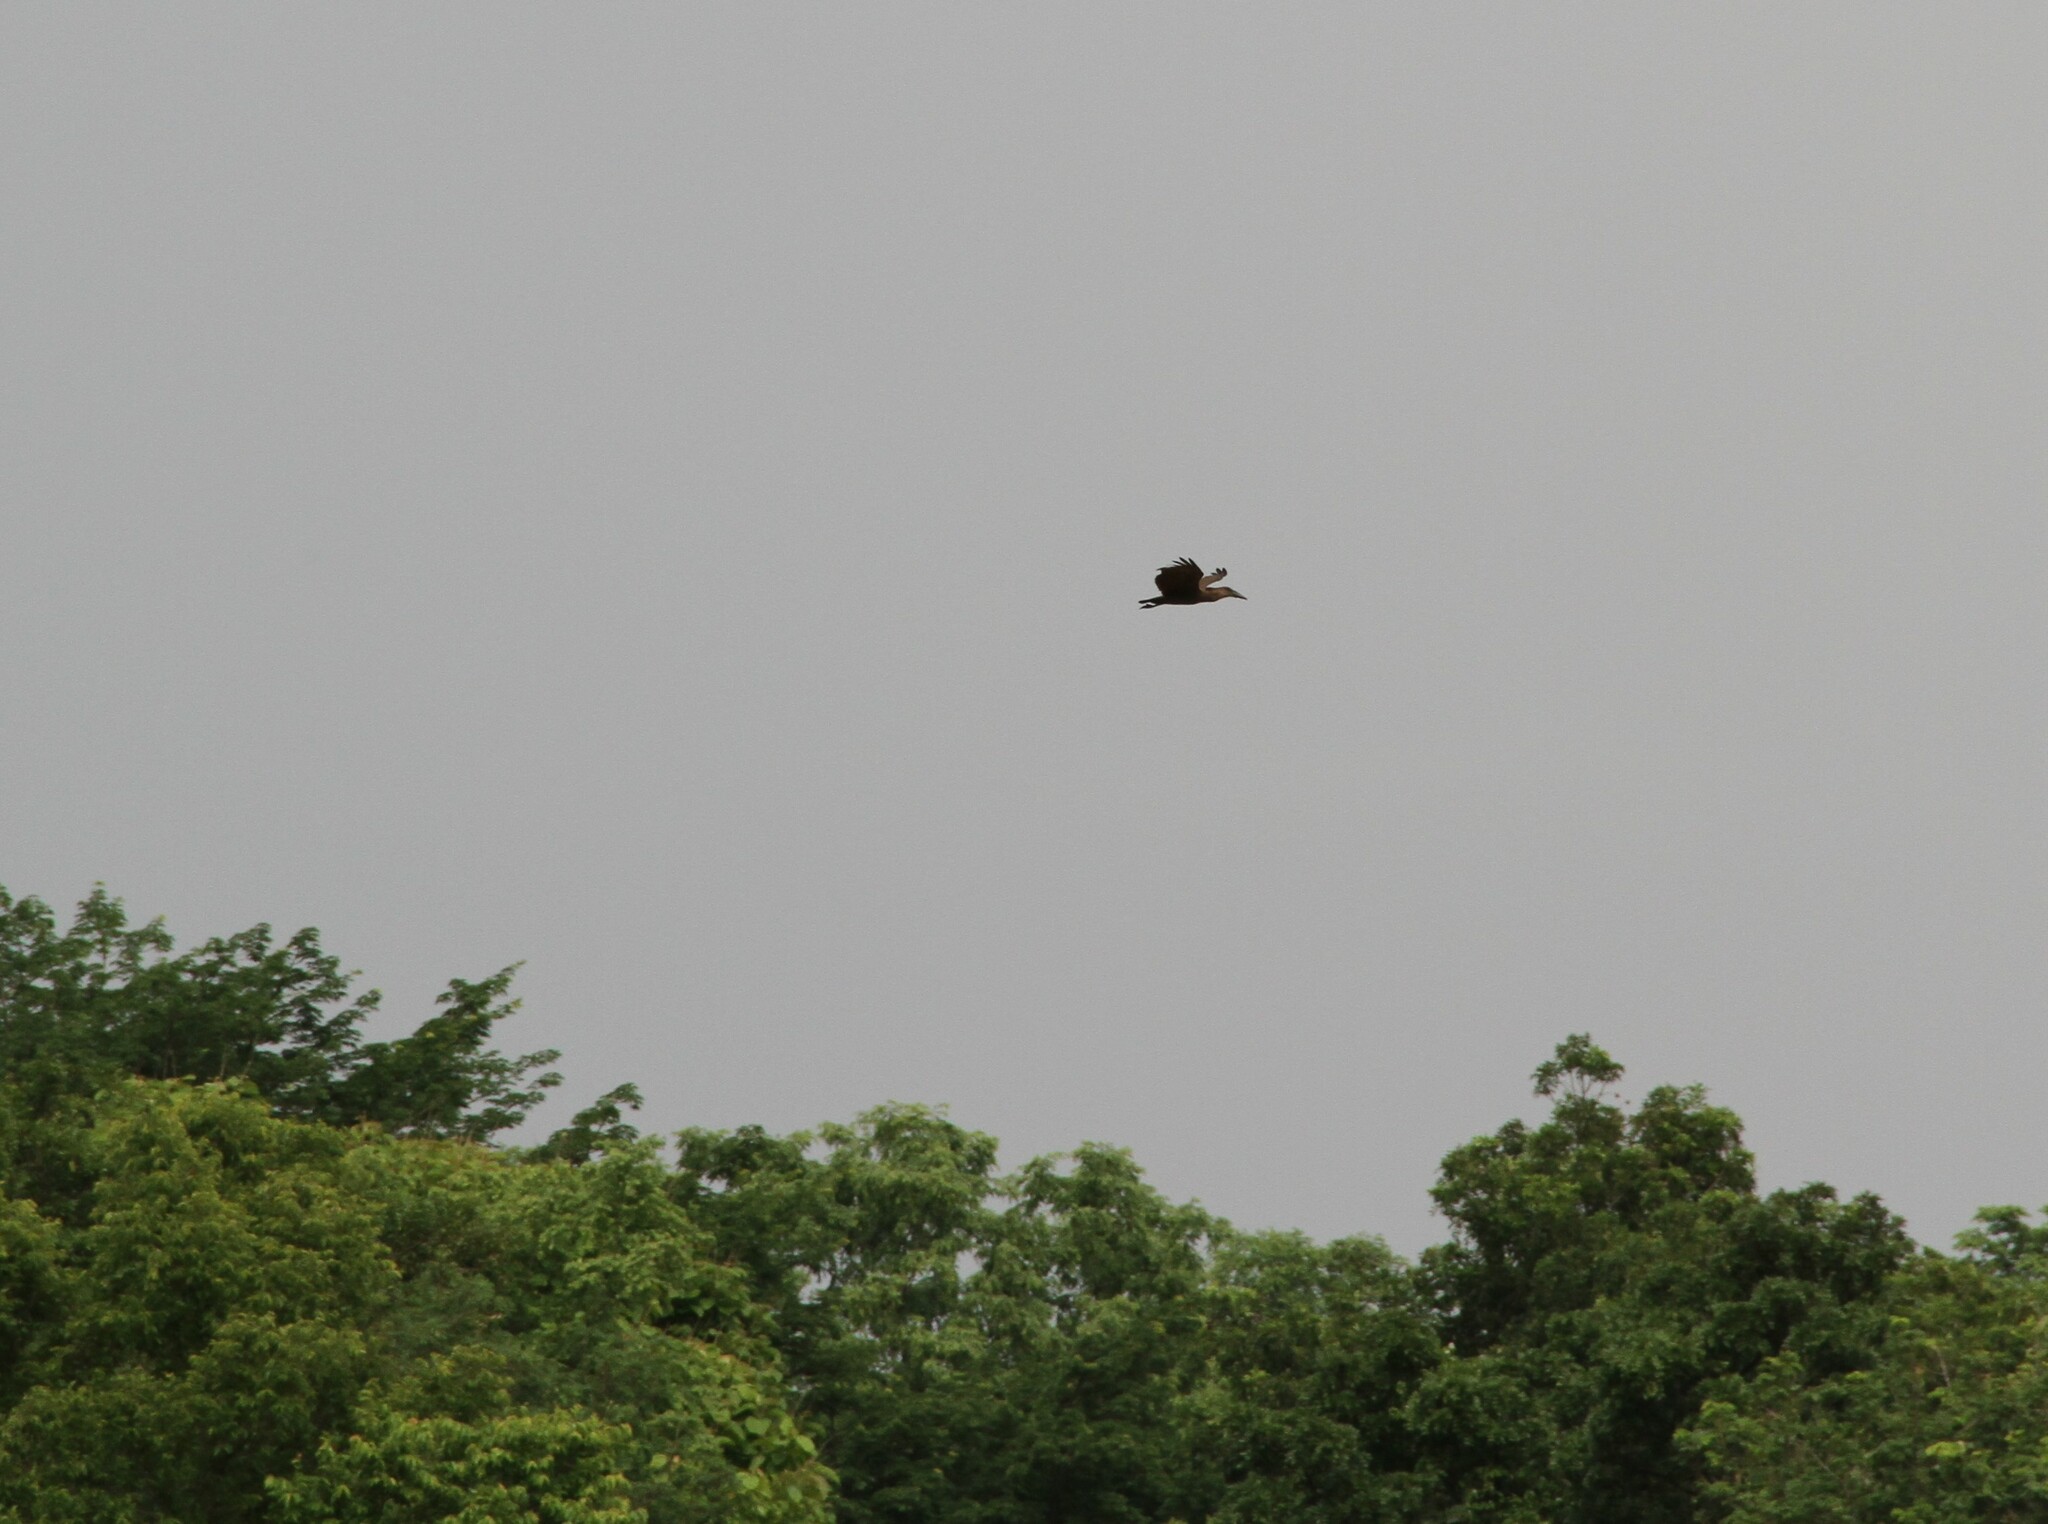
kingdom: Animalia
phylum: Chordata
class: Aves
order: Pelecaniformes
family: Scopidae
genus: Scopus
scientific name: Scopus umbretta
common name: Hamerkop
